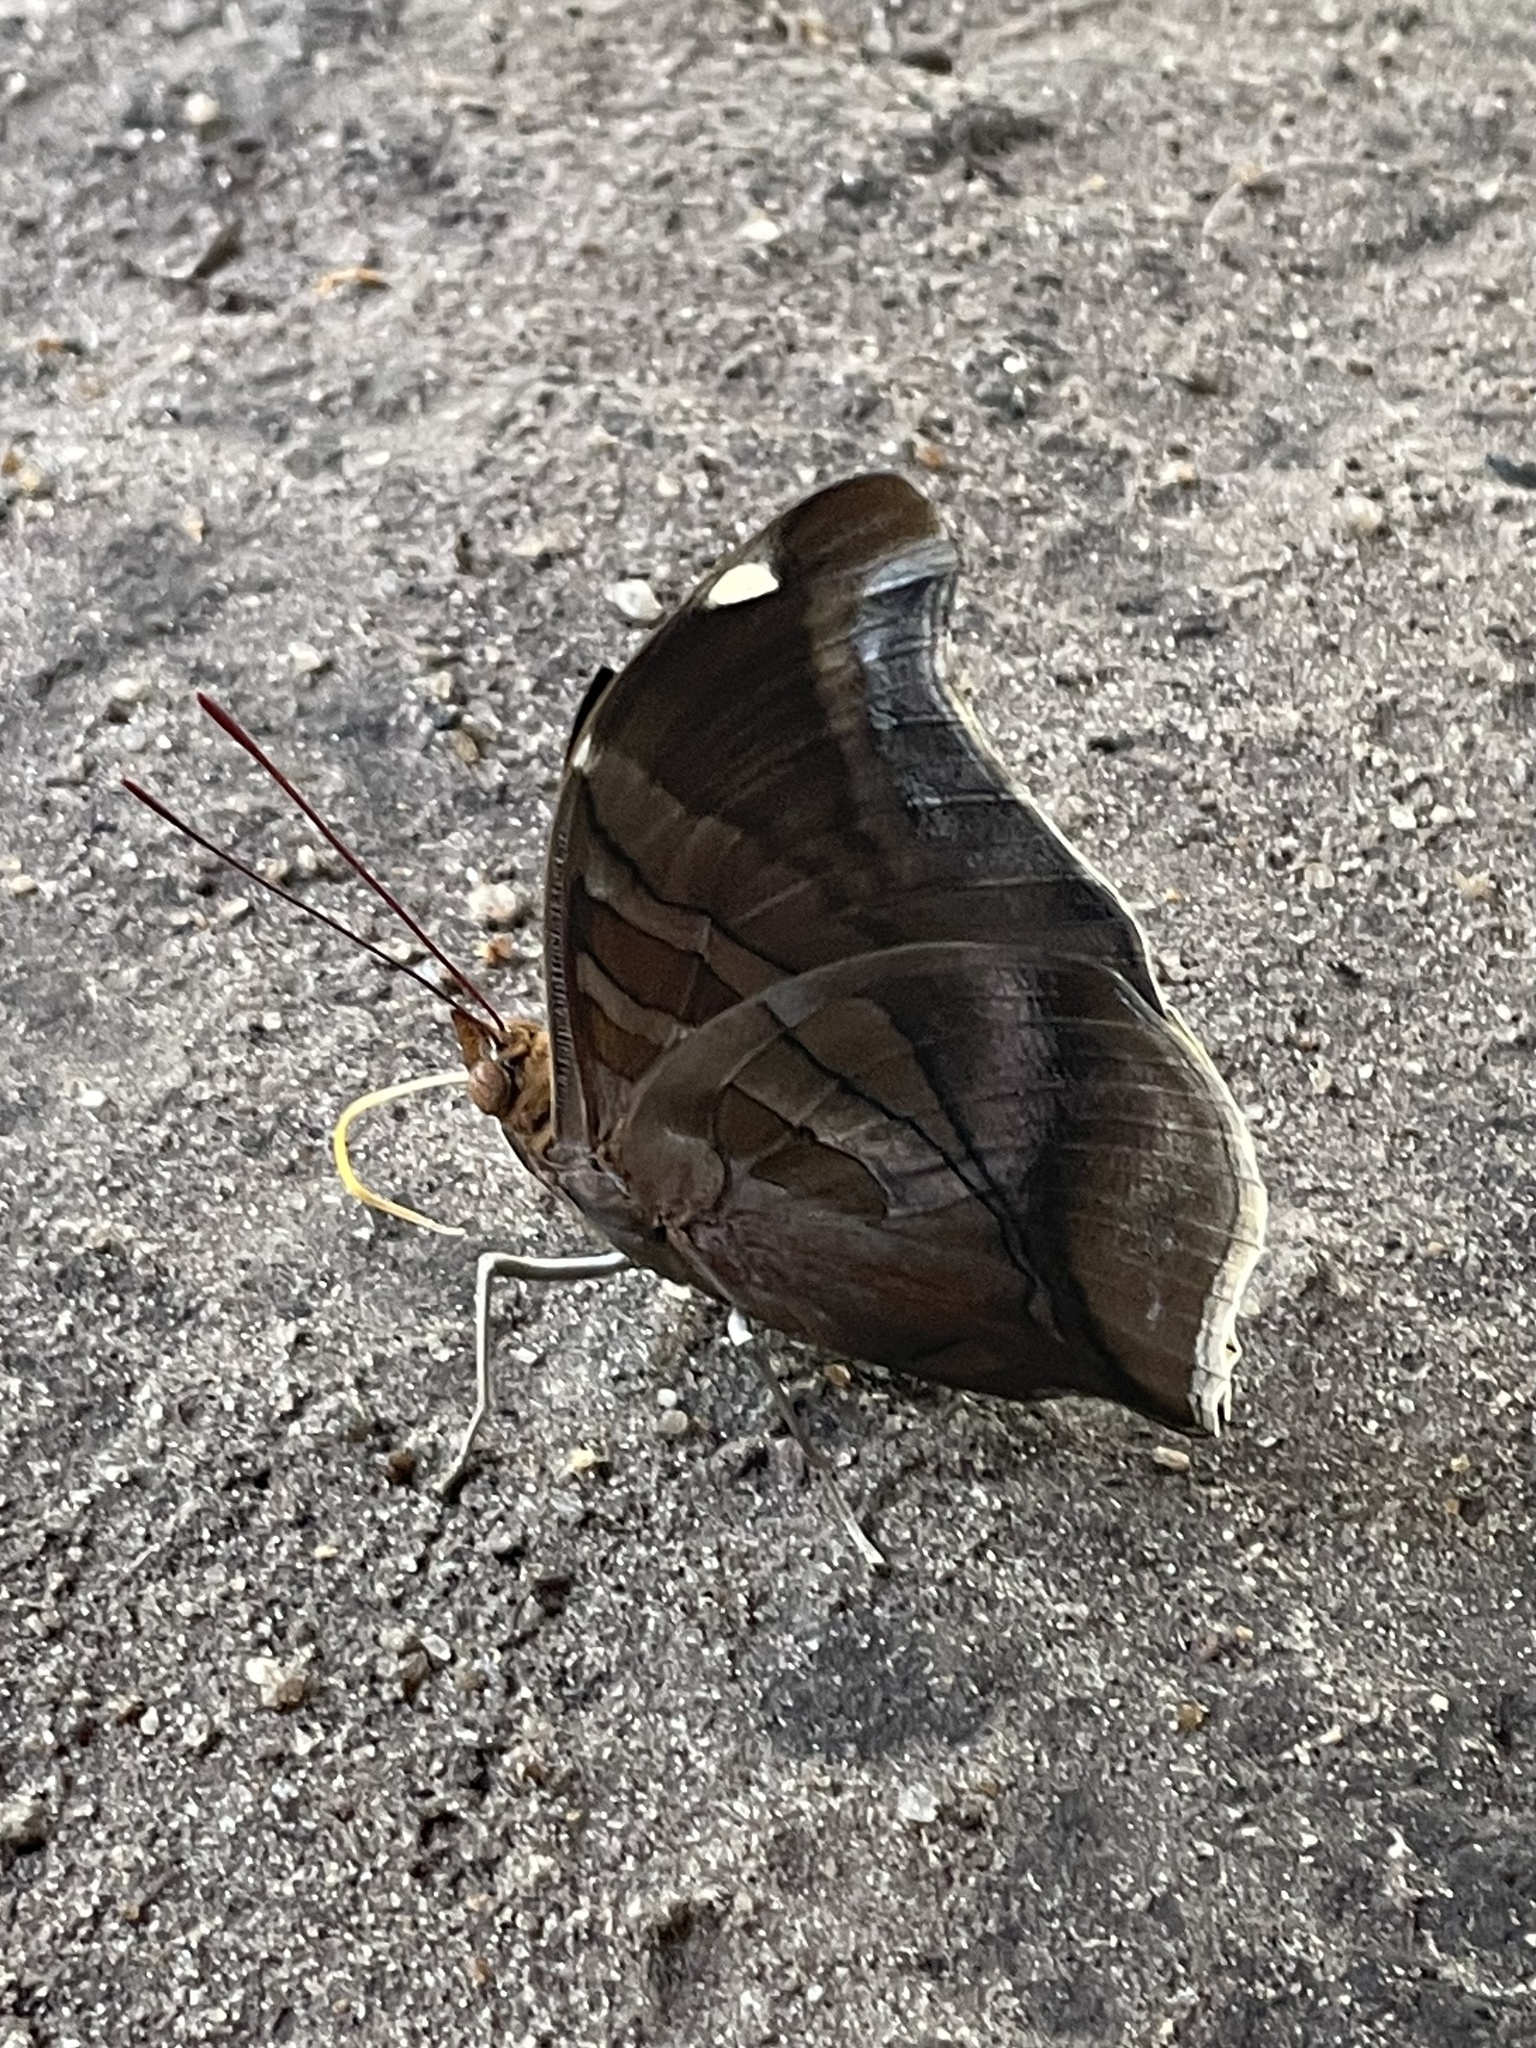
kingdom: Animalia
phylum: Arthropoda
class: Insecta
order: Lepidoptera
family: Nymphalidae
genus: Historis
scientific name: Historis odius
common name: Orion cecropian
